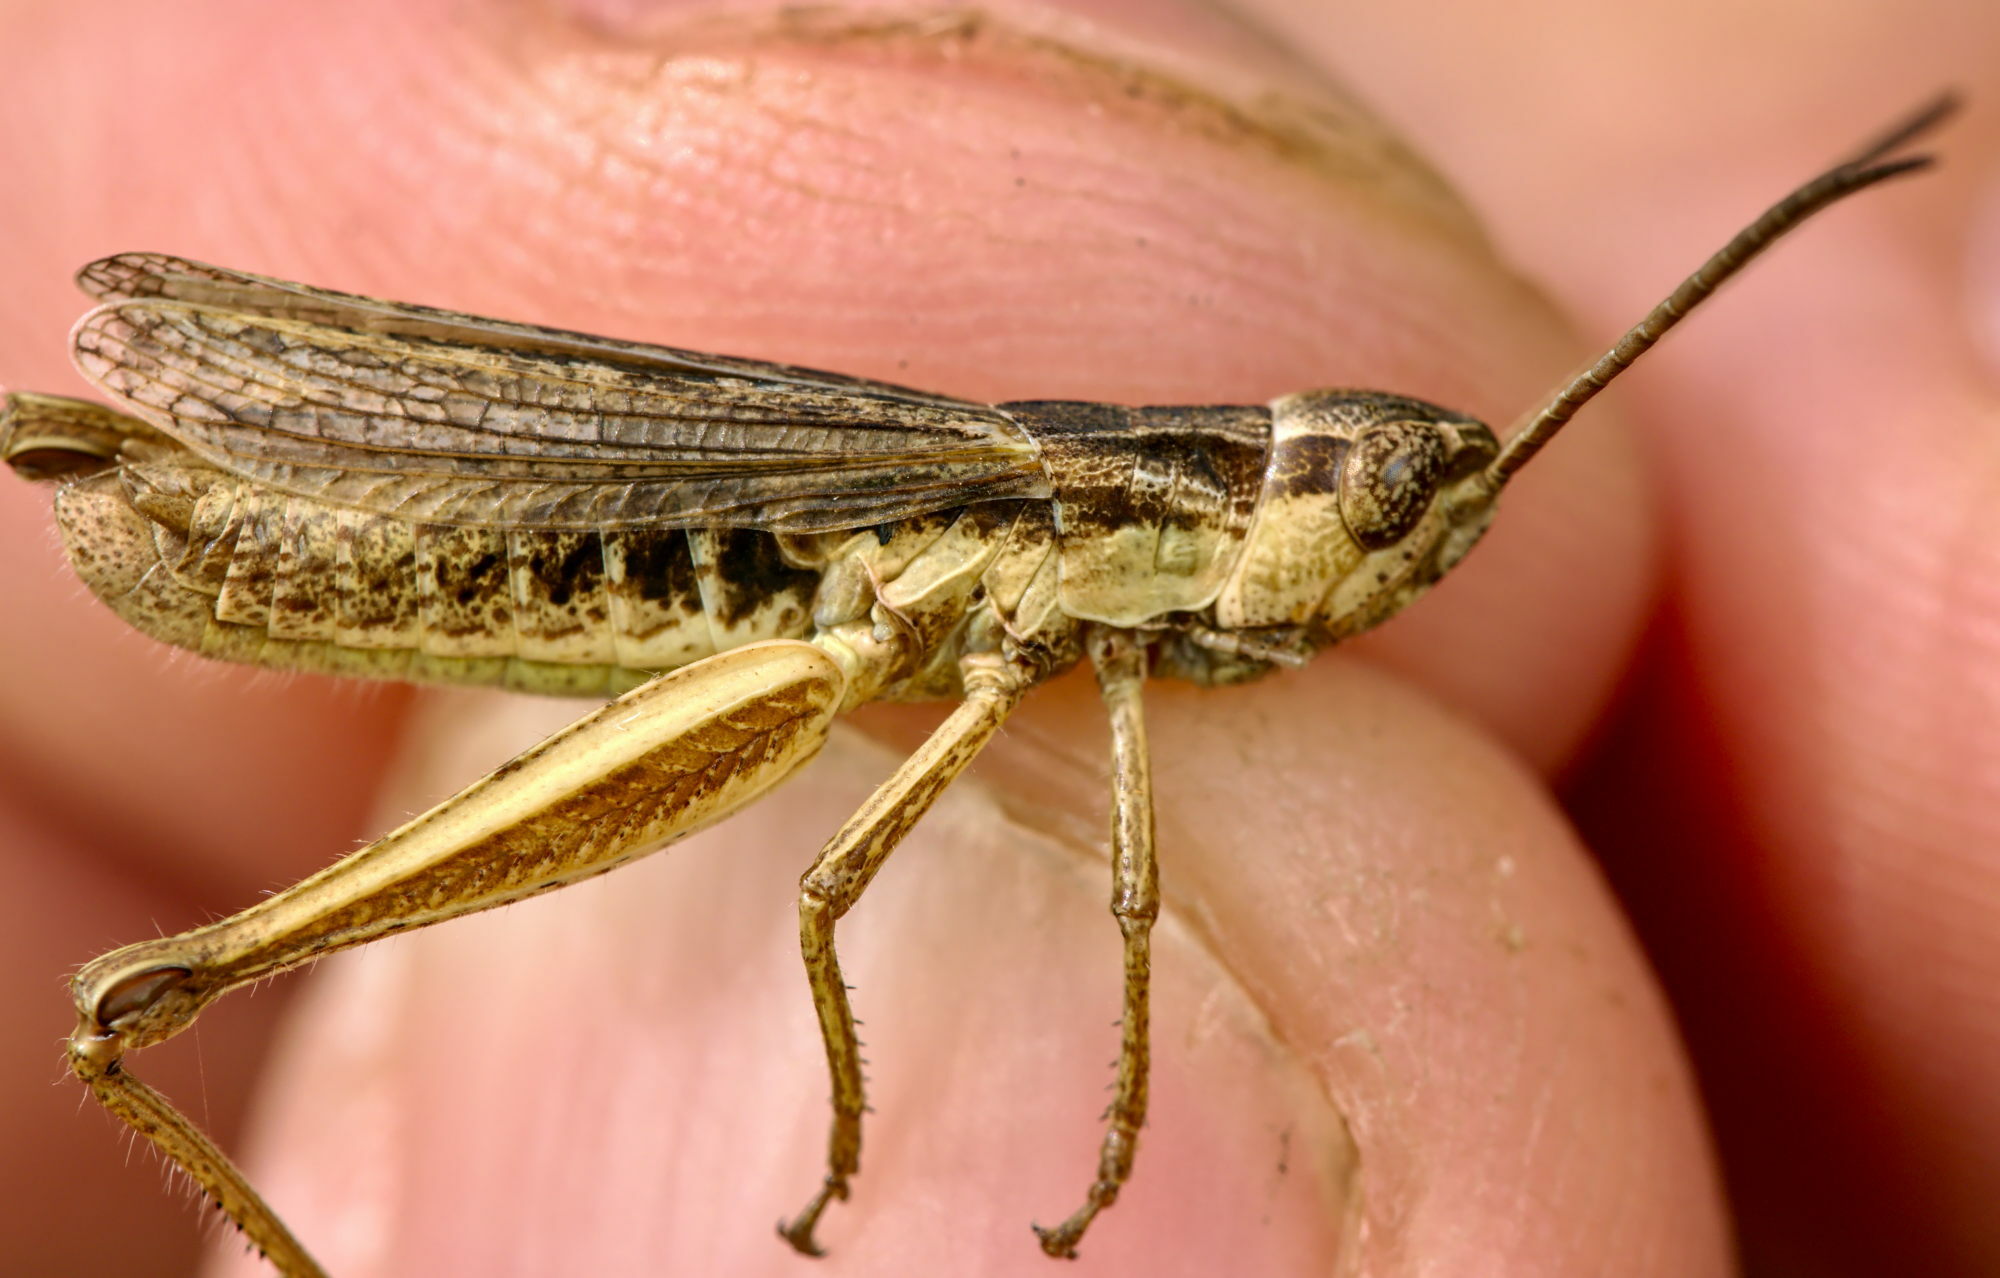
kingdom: Animalia
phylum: Arthropoda
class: Insecta
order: Orthoptera
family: Acrididae
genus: Chorthippus
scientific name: Chorthippus dorsatus
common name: Steppe grasshopper
